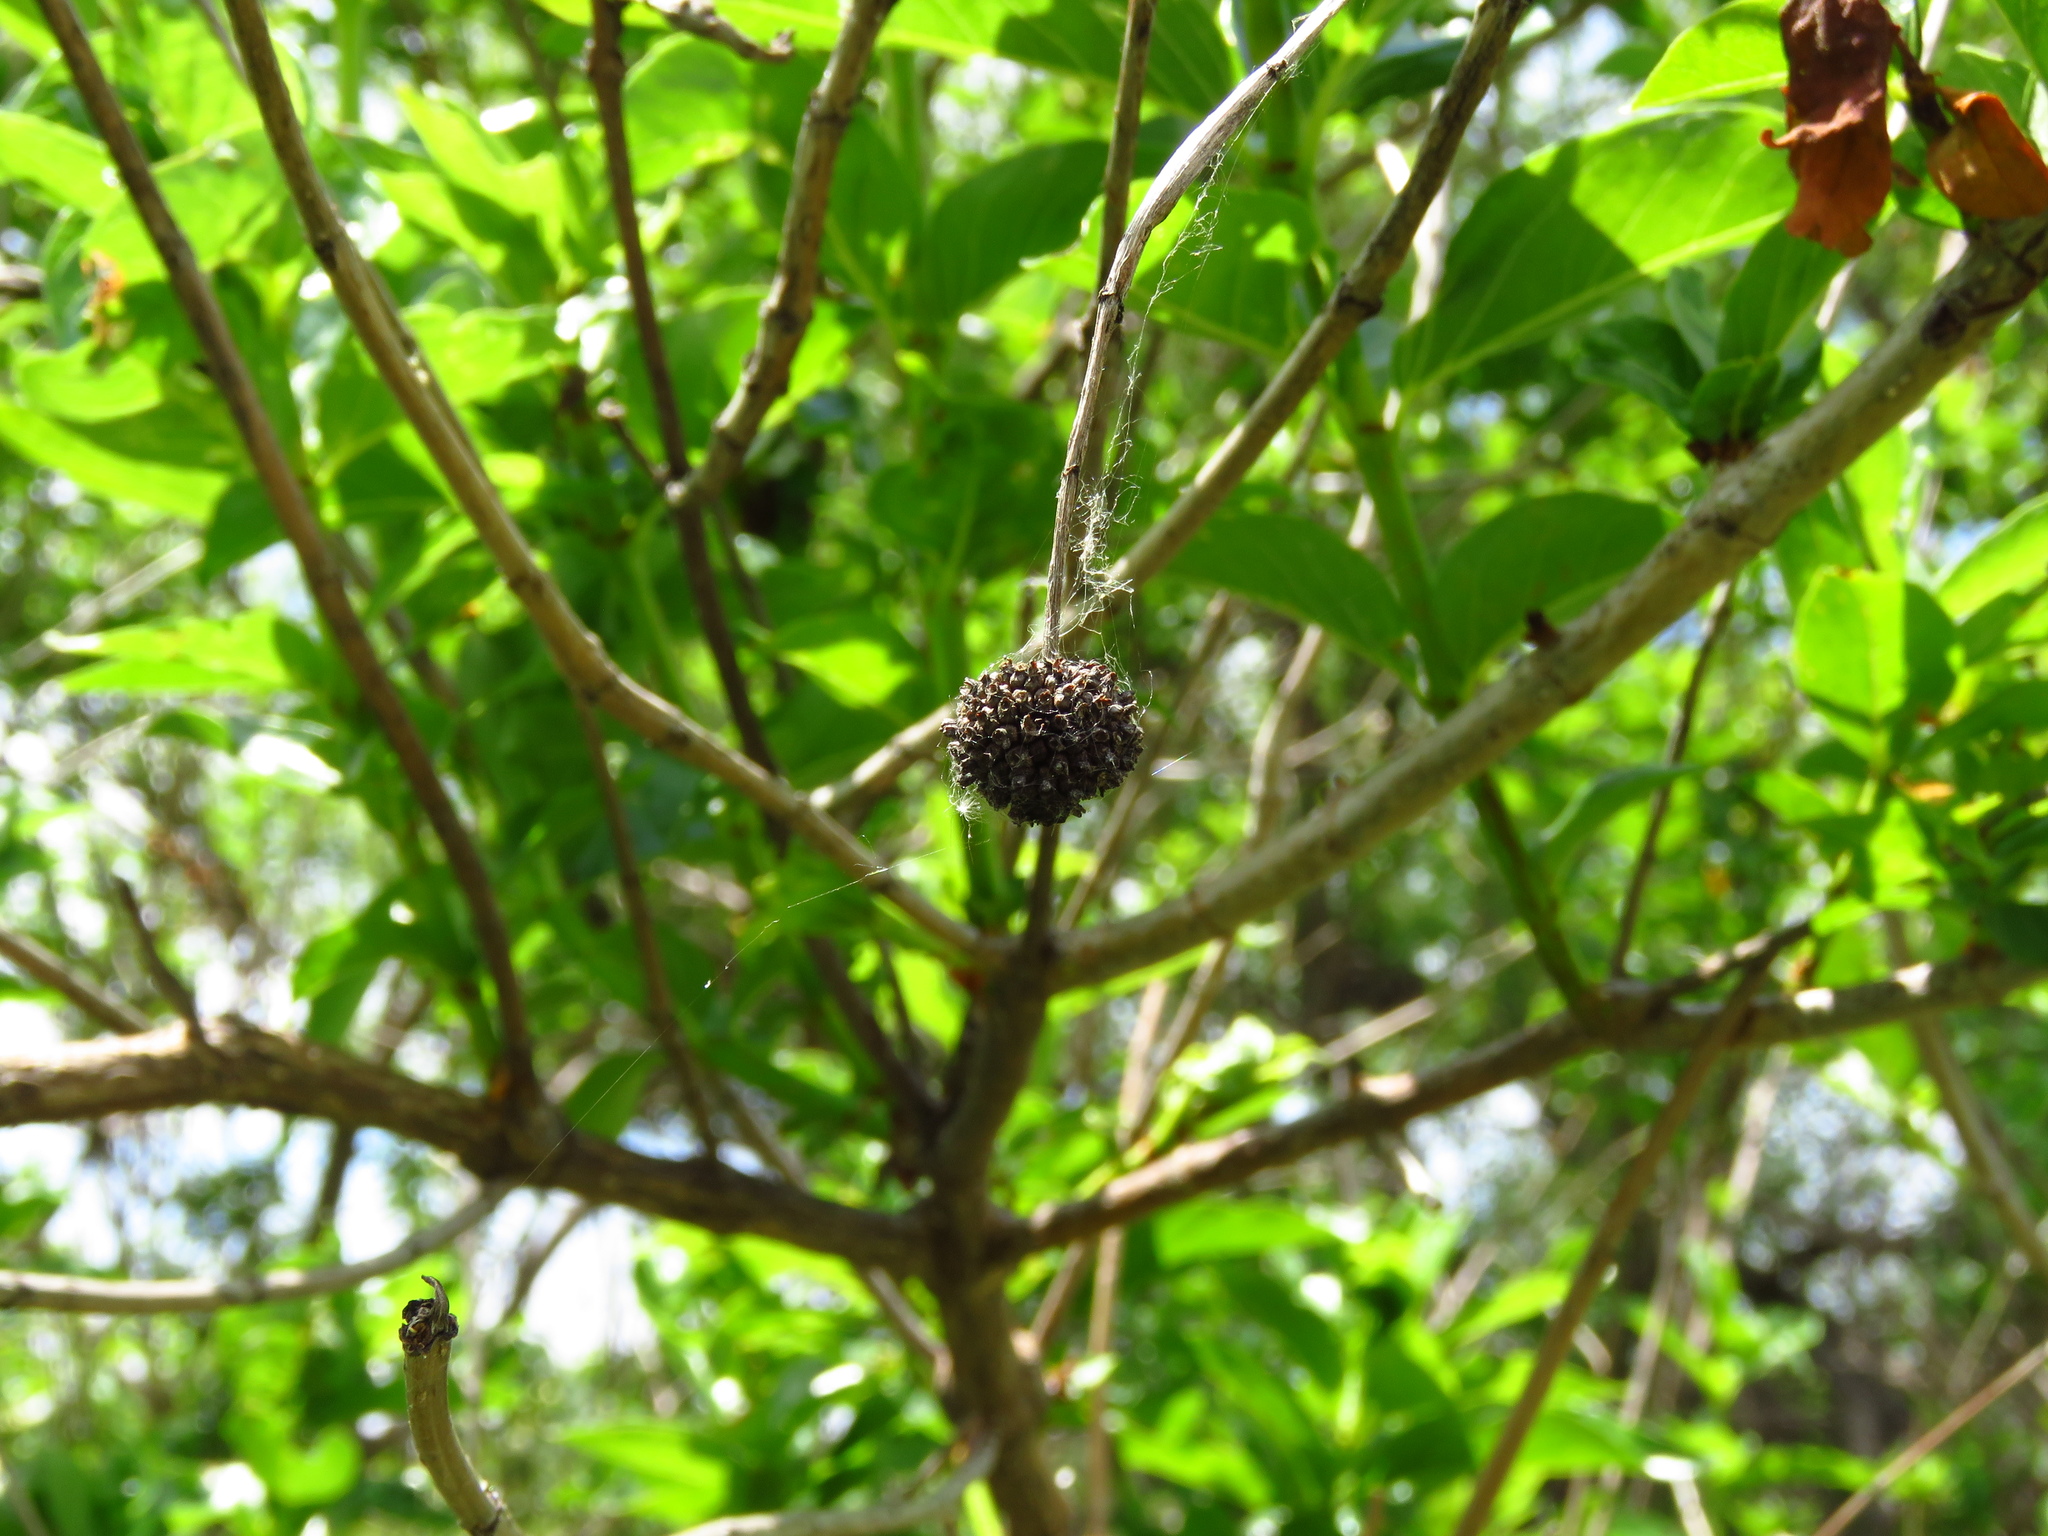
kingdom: Plantae
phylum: Tracheophyta
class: Magnoliopsida
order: Gentianales
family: Rubiaceae
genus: Cephalanthus
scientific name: Cephalanthus occidentalis
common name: Button-willow
